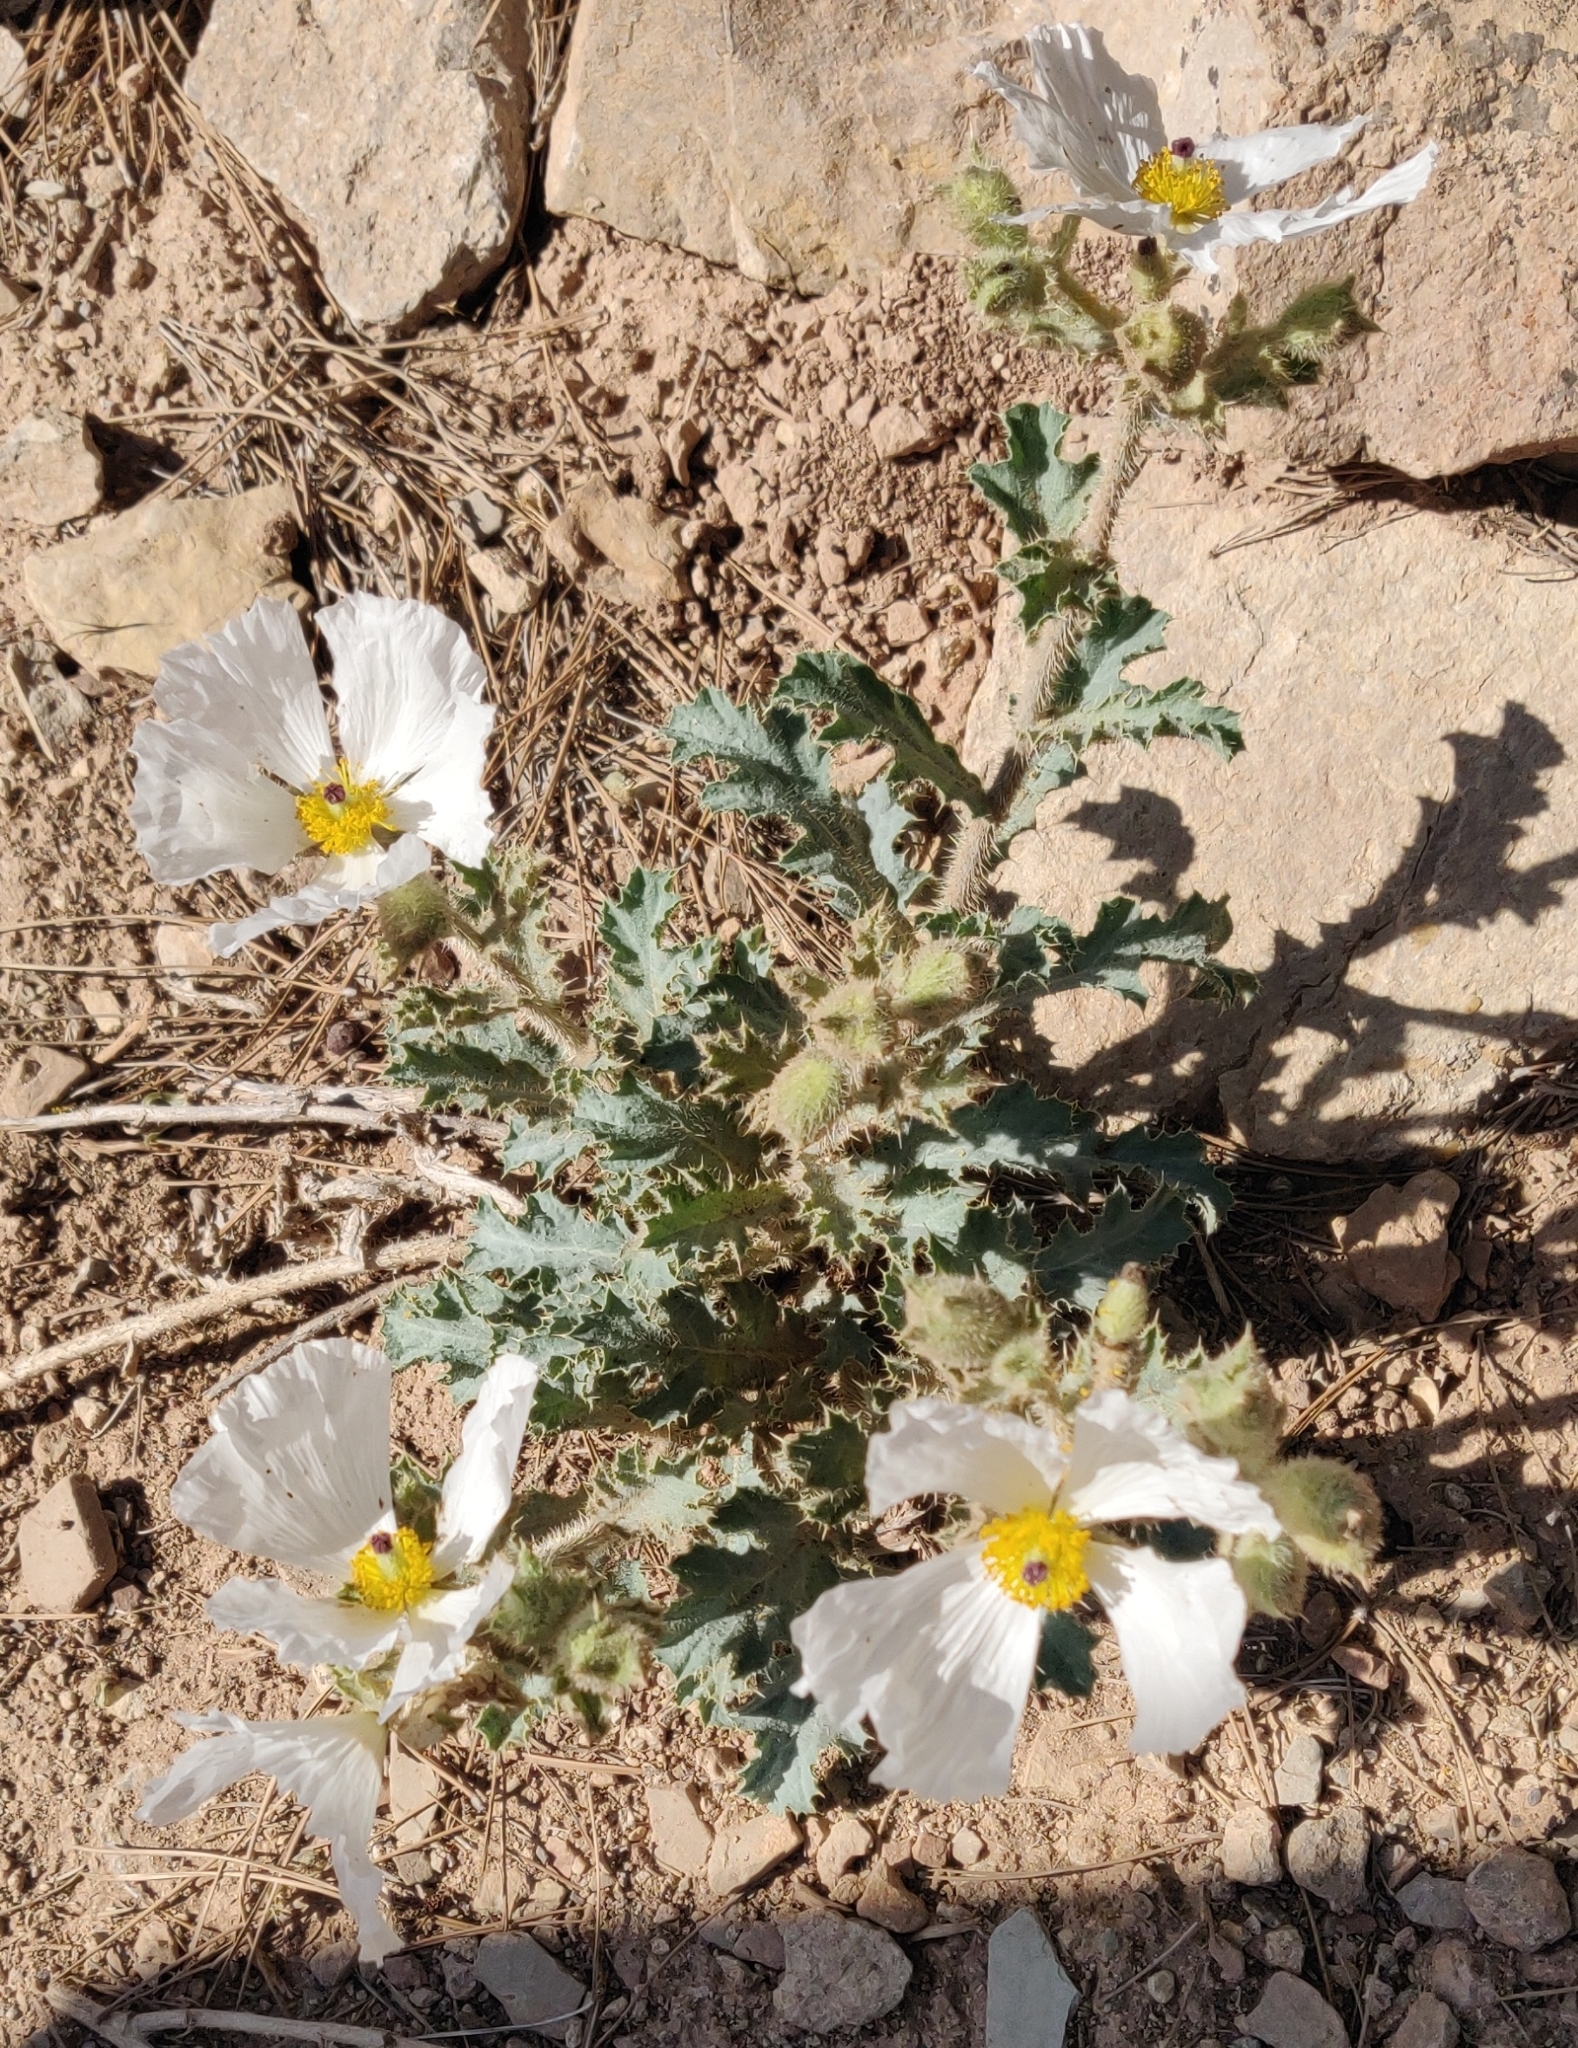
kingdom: Plantae
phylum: Tracheophyta
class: Magnoliopsida
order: Ranunculales
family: Papaveraceae
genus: Argemone
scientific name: Argemone munita
